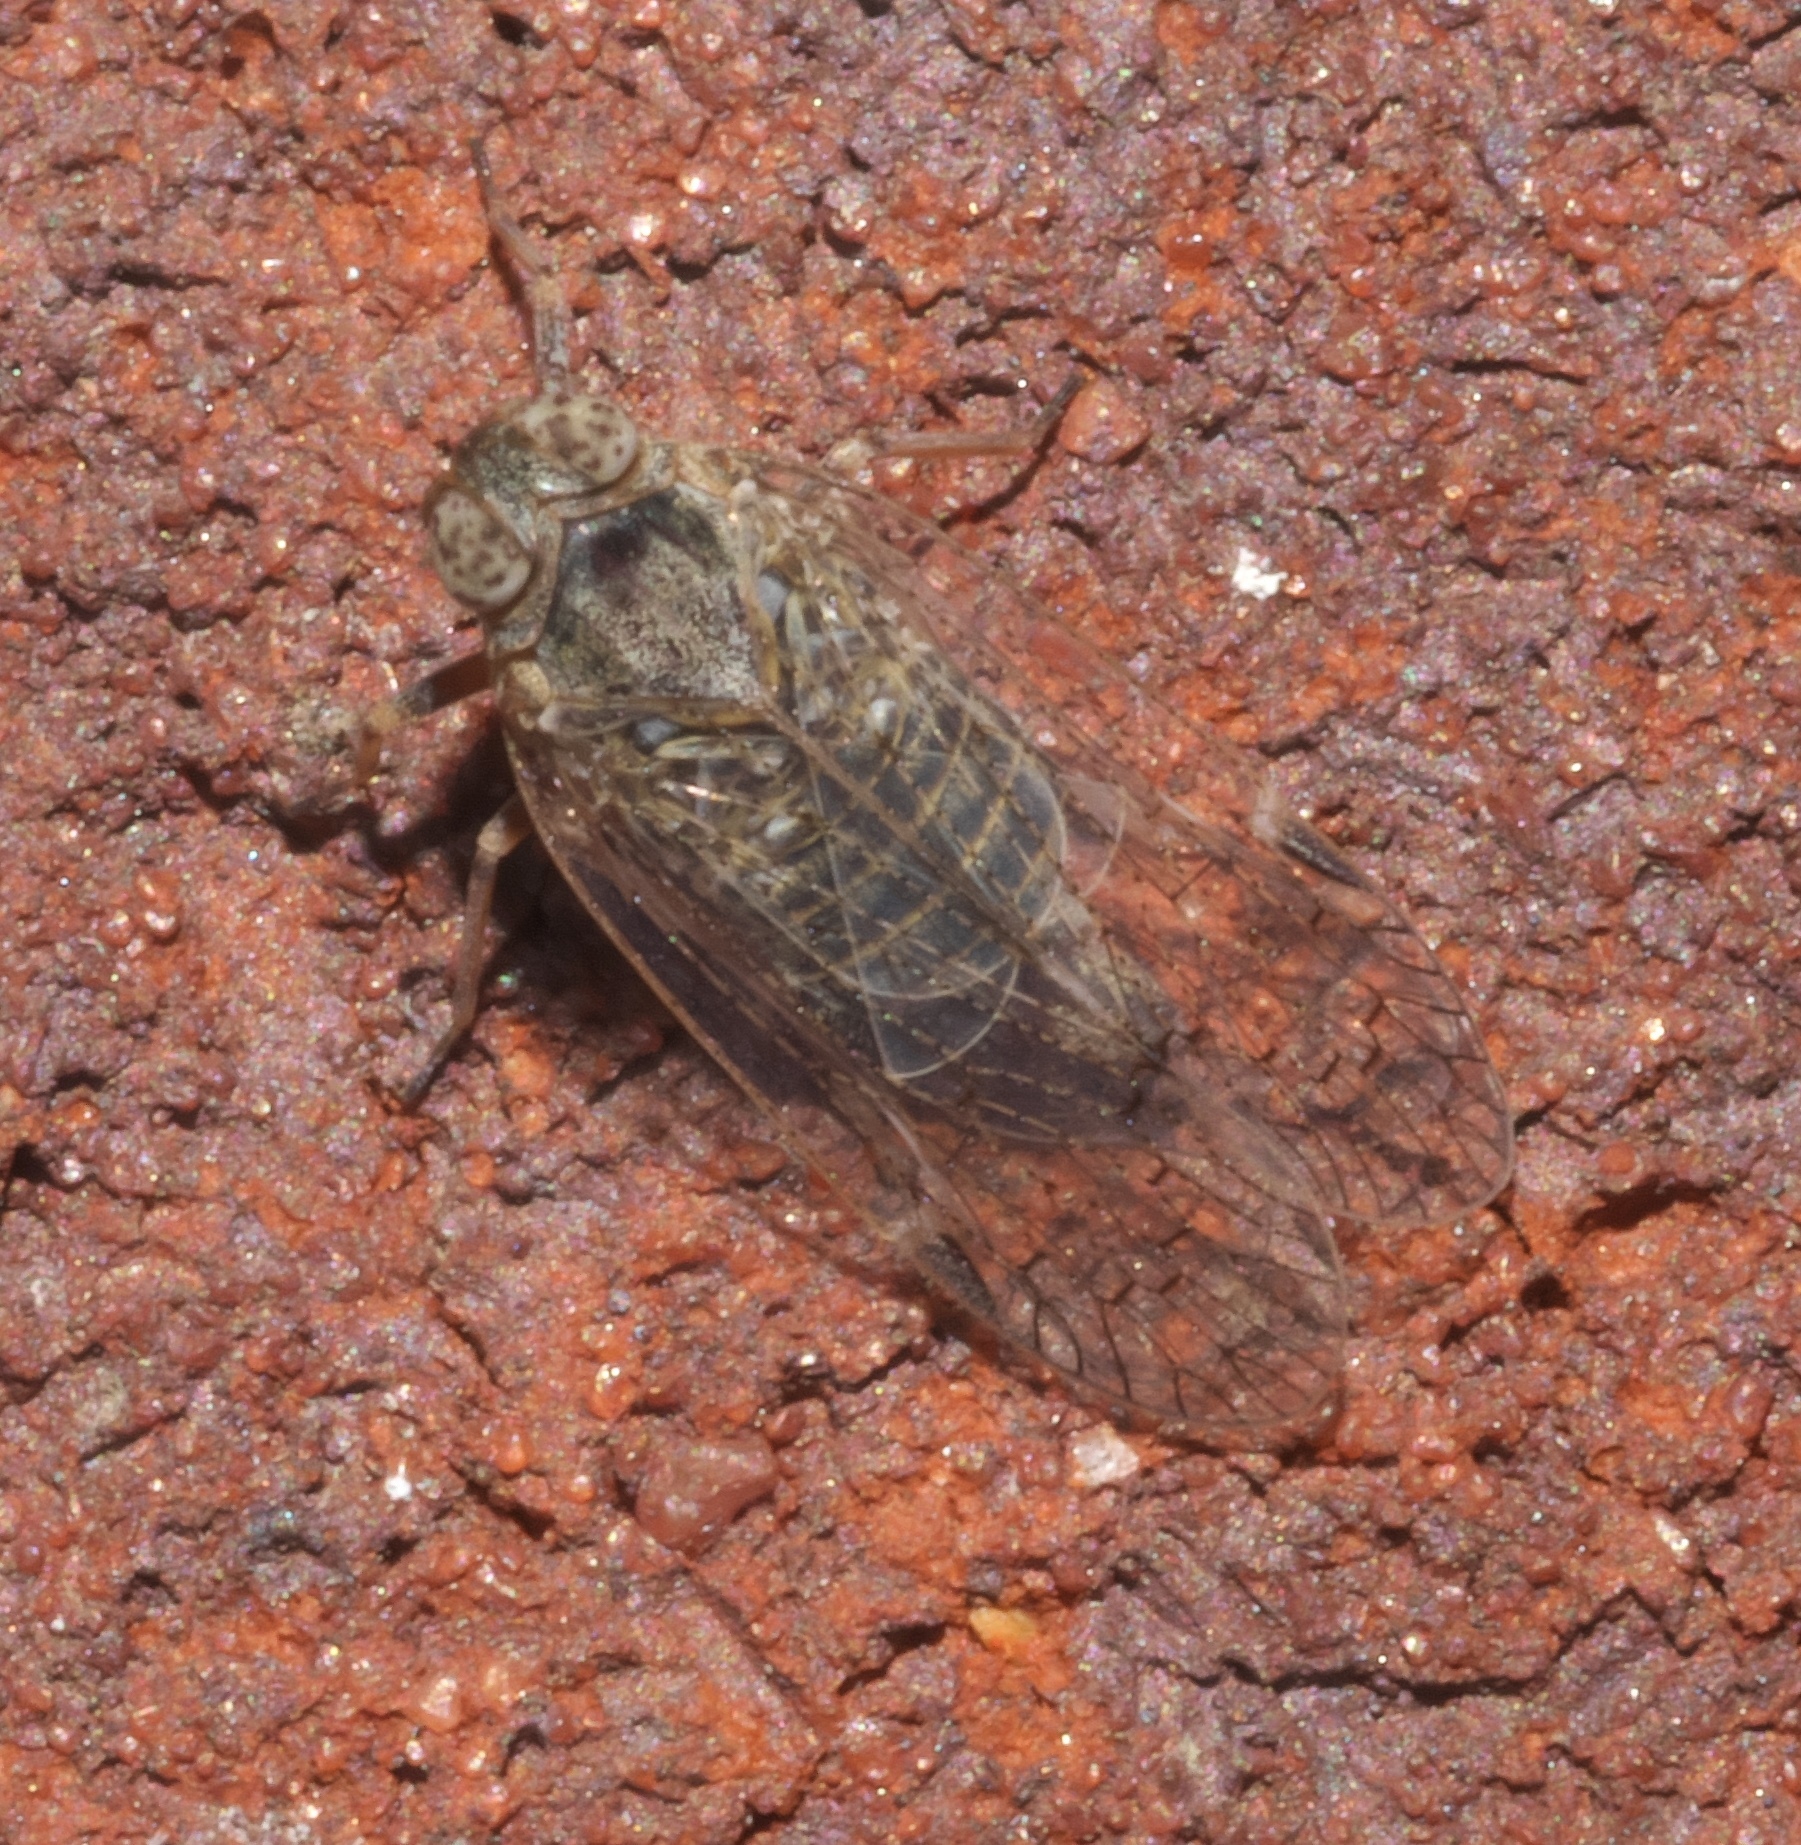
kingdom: Animalia
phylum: Arthropoda
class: Insecta
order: Hemiptera
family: Cixiidae
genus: Melanoliarus
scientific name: Melanoliarus aridus
